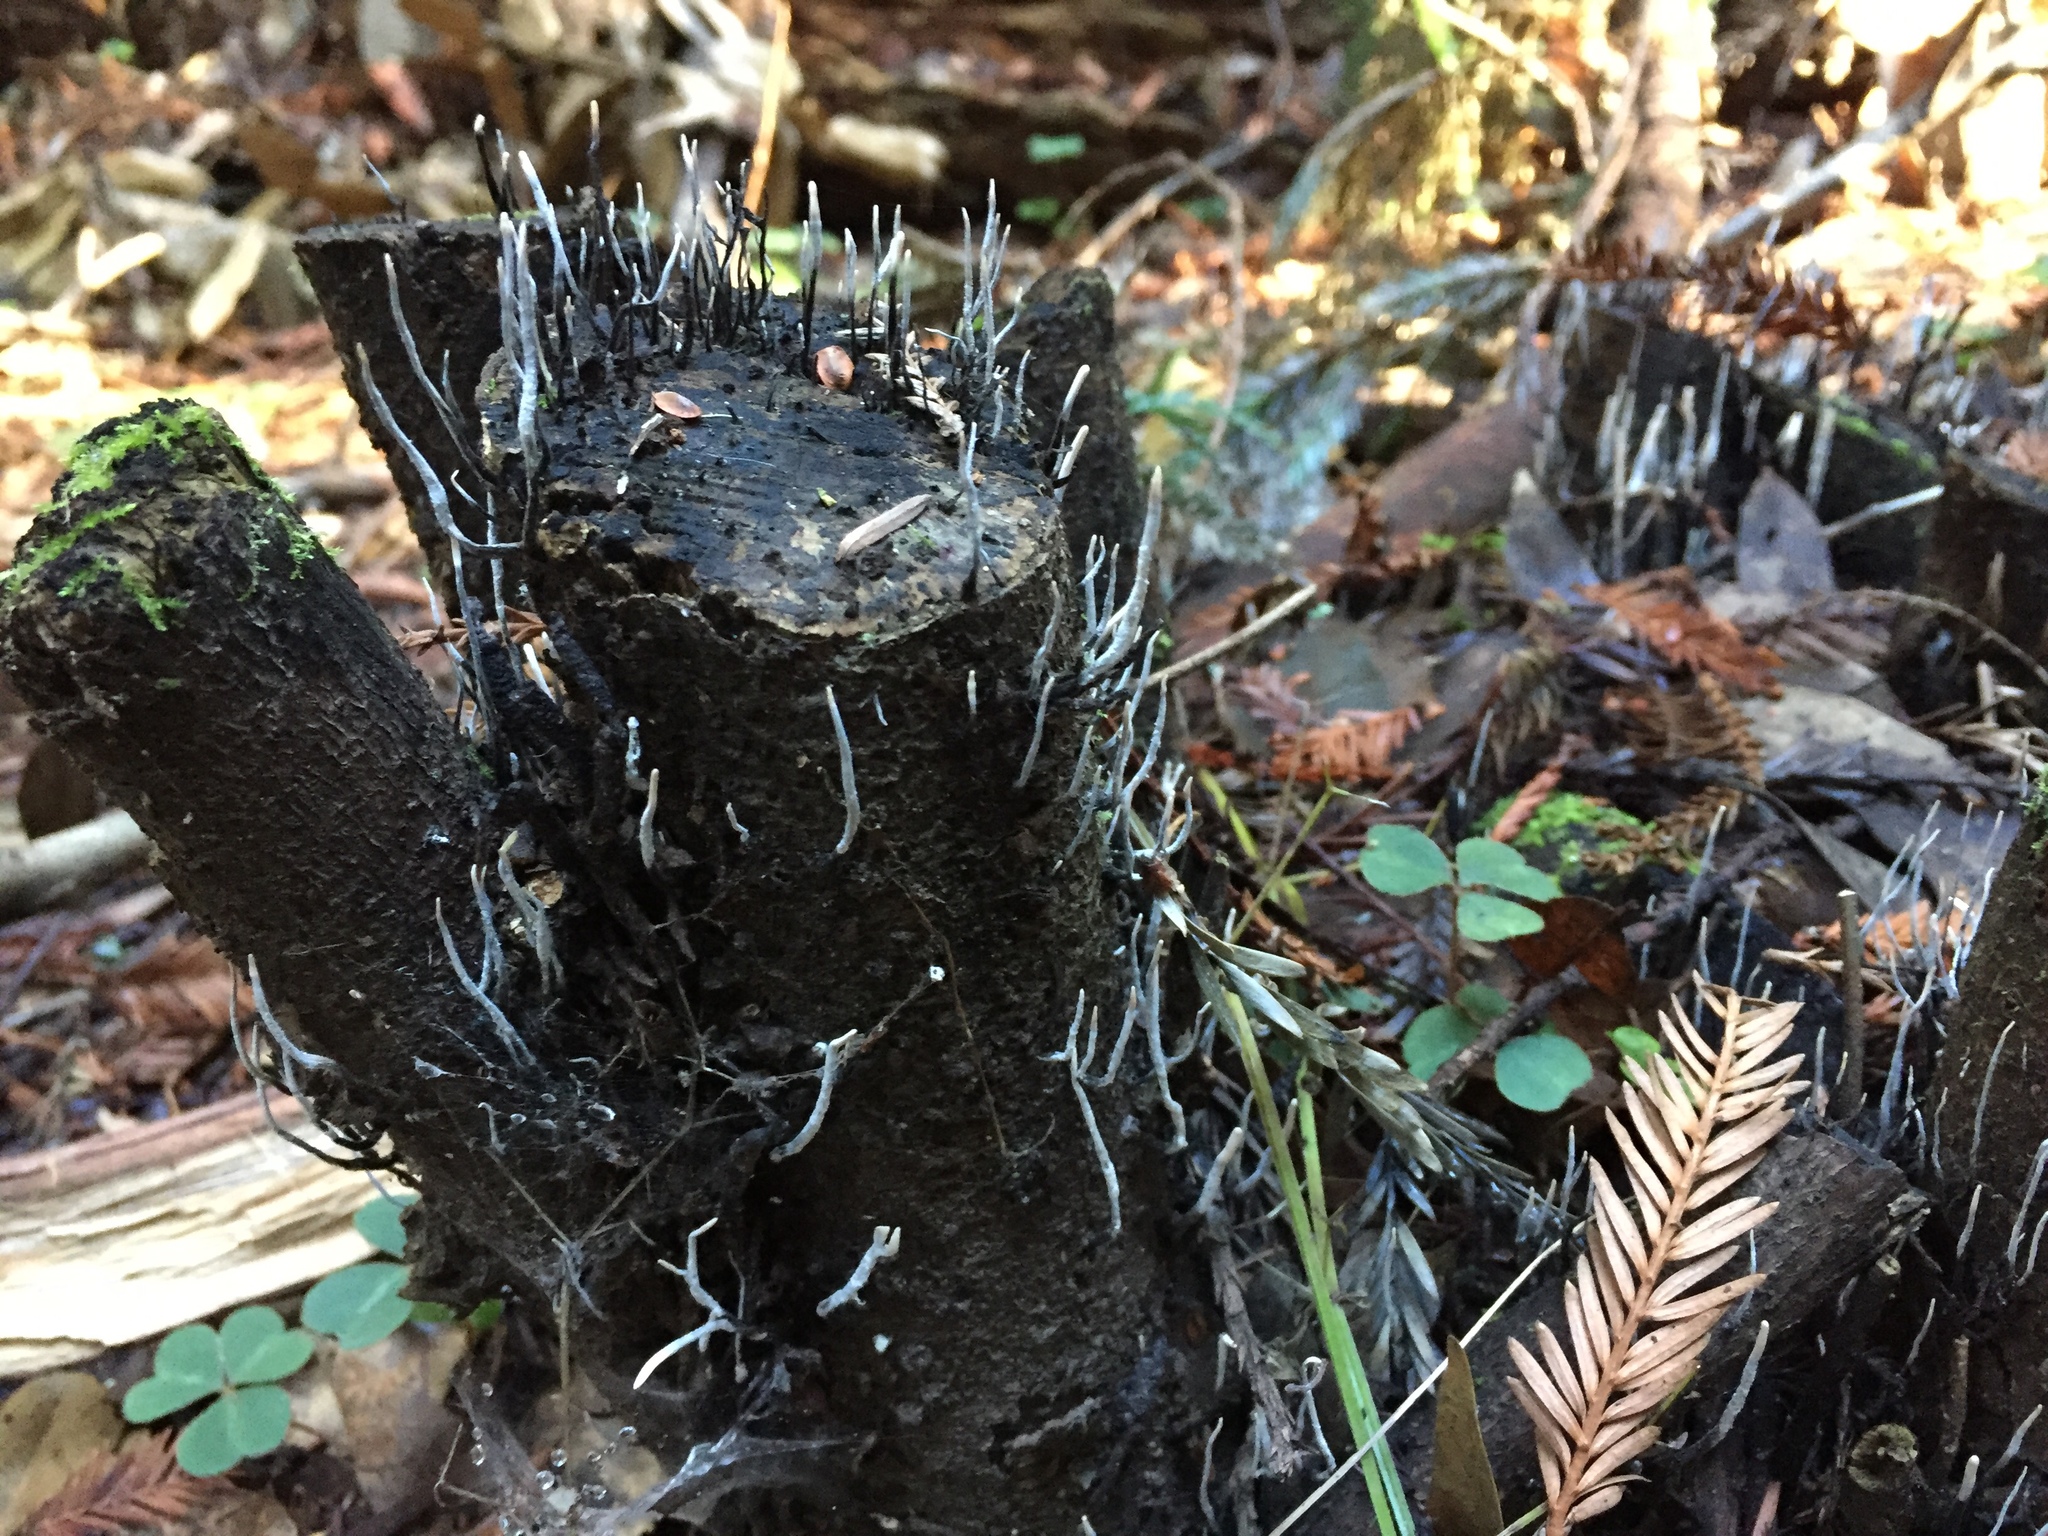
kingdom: Fungi
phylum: Ascomycota
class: Sordariomycetes
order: Xylariales
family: Xylariaceae
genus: Xylaria
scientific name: Xylaria hypoxylon
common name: Candle-snuff fungus
